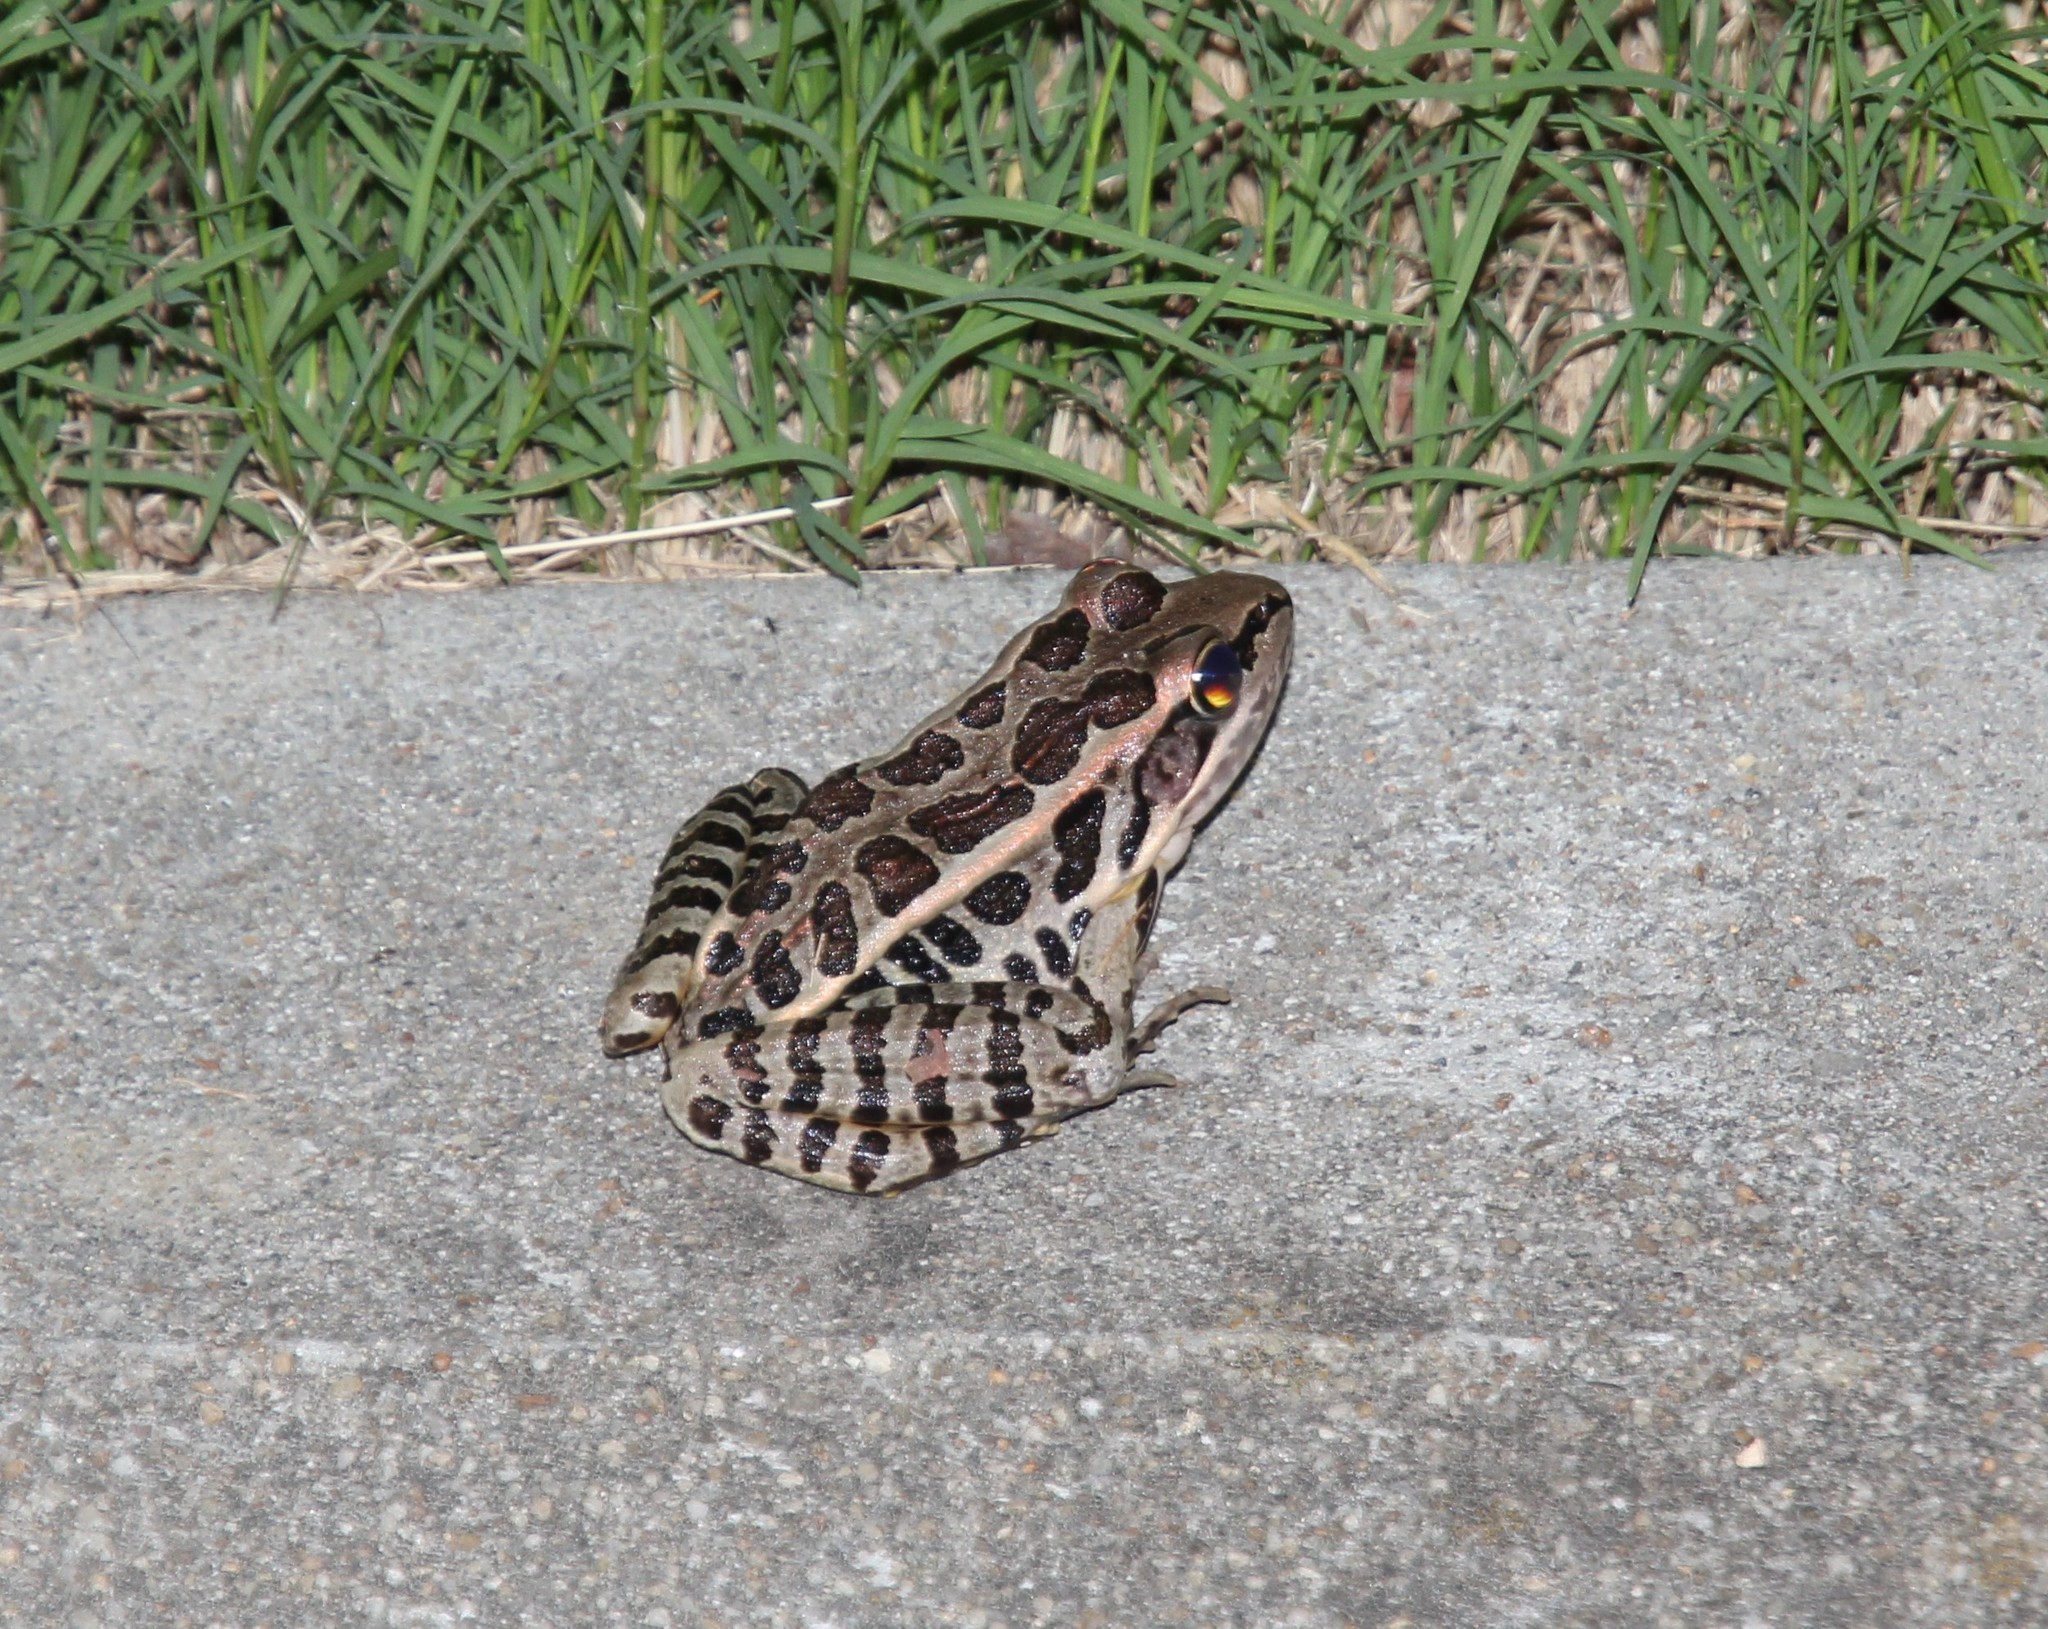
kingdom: Animalia
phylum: Chordata
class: Amphibia
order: Anura
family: Ranidae
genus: Lithobates
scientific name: Lithobates palustris
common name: Pickerel frog
